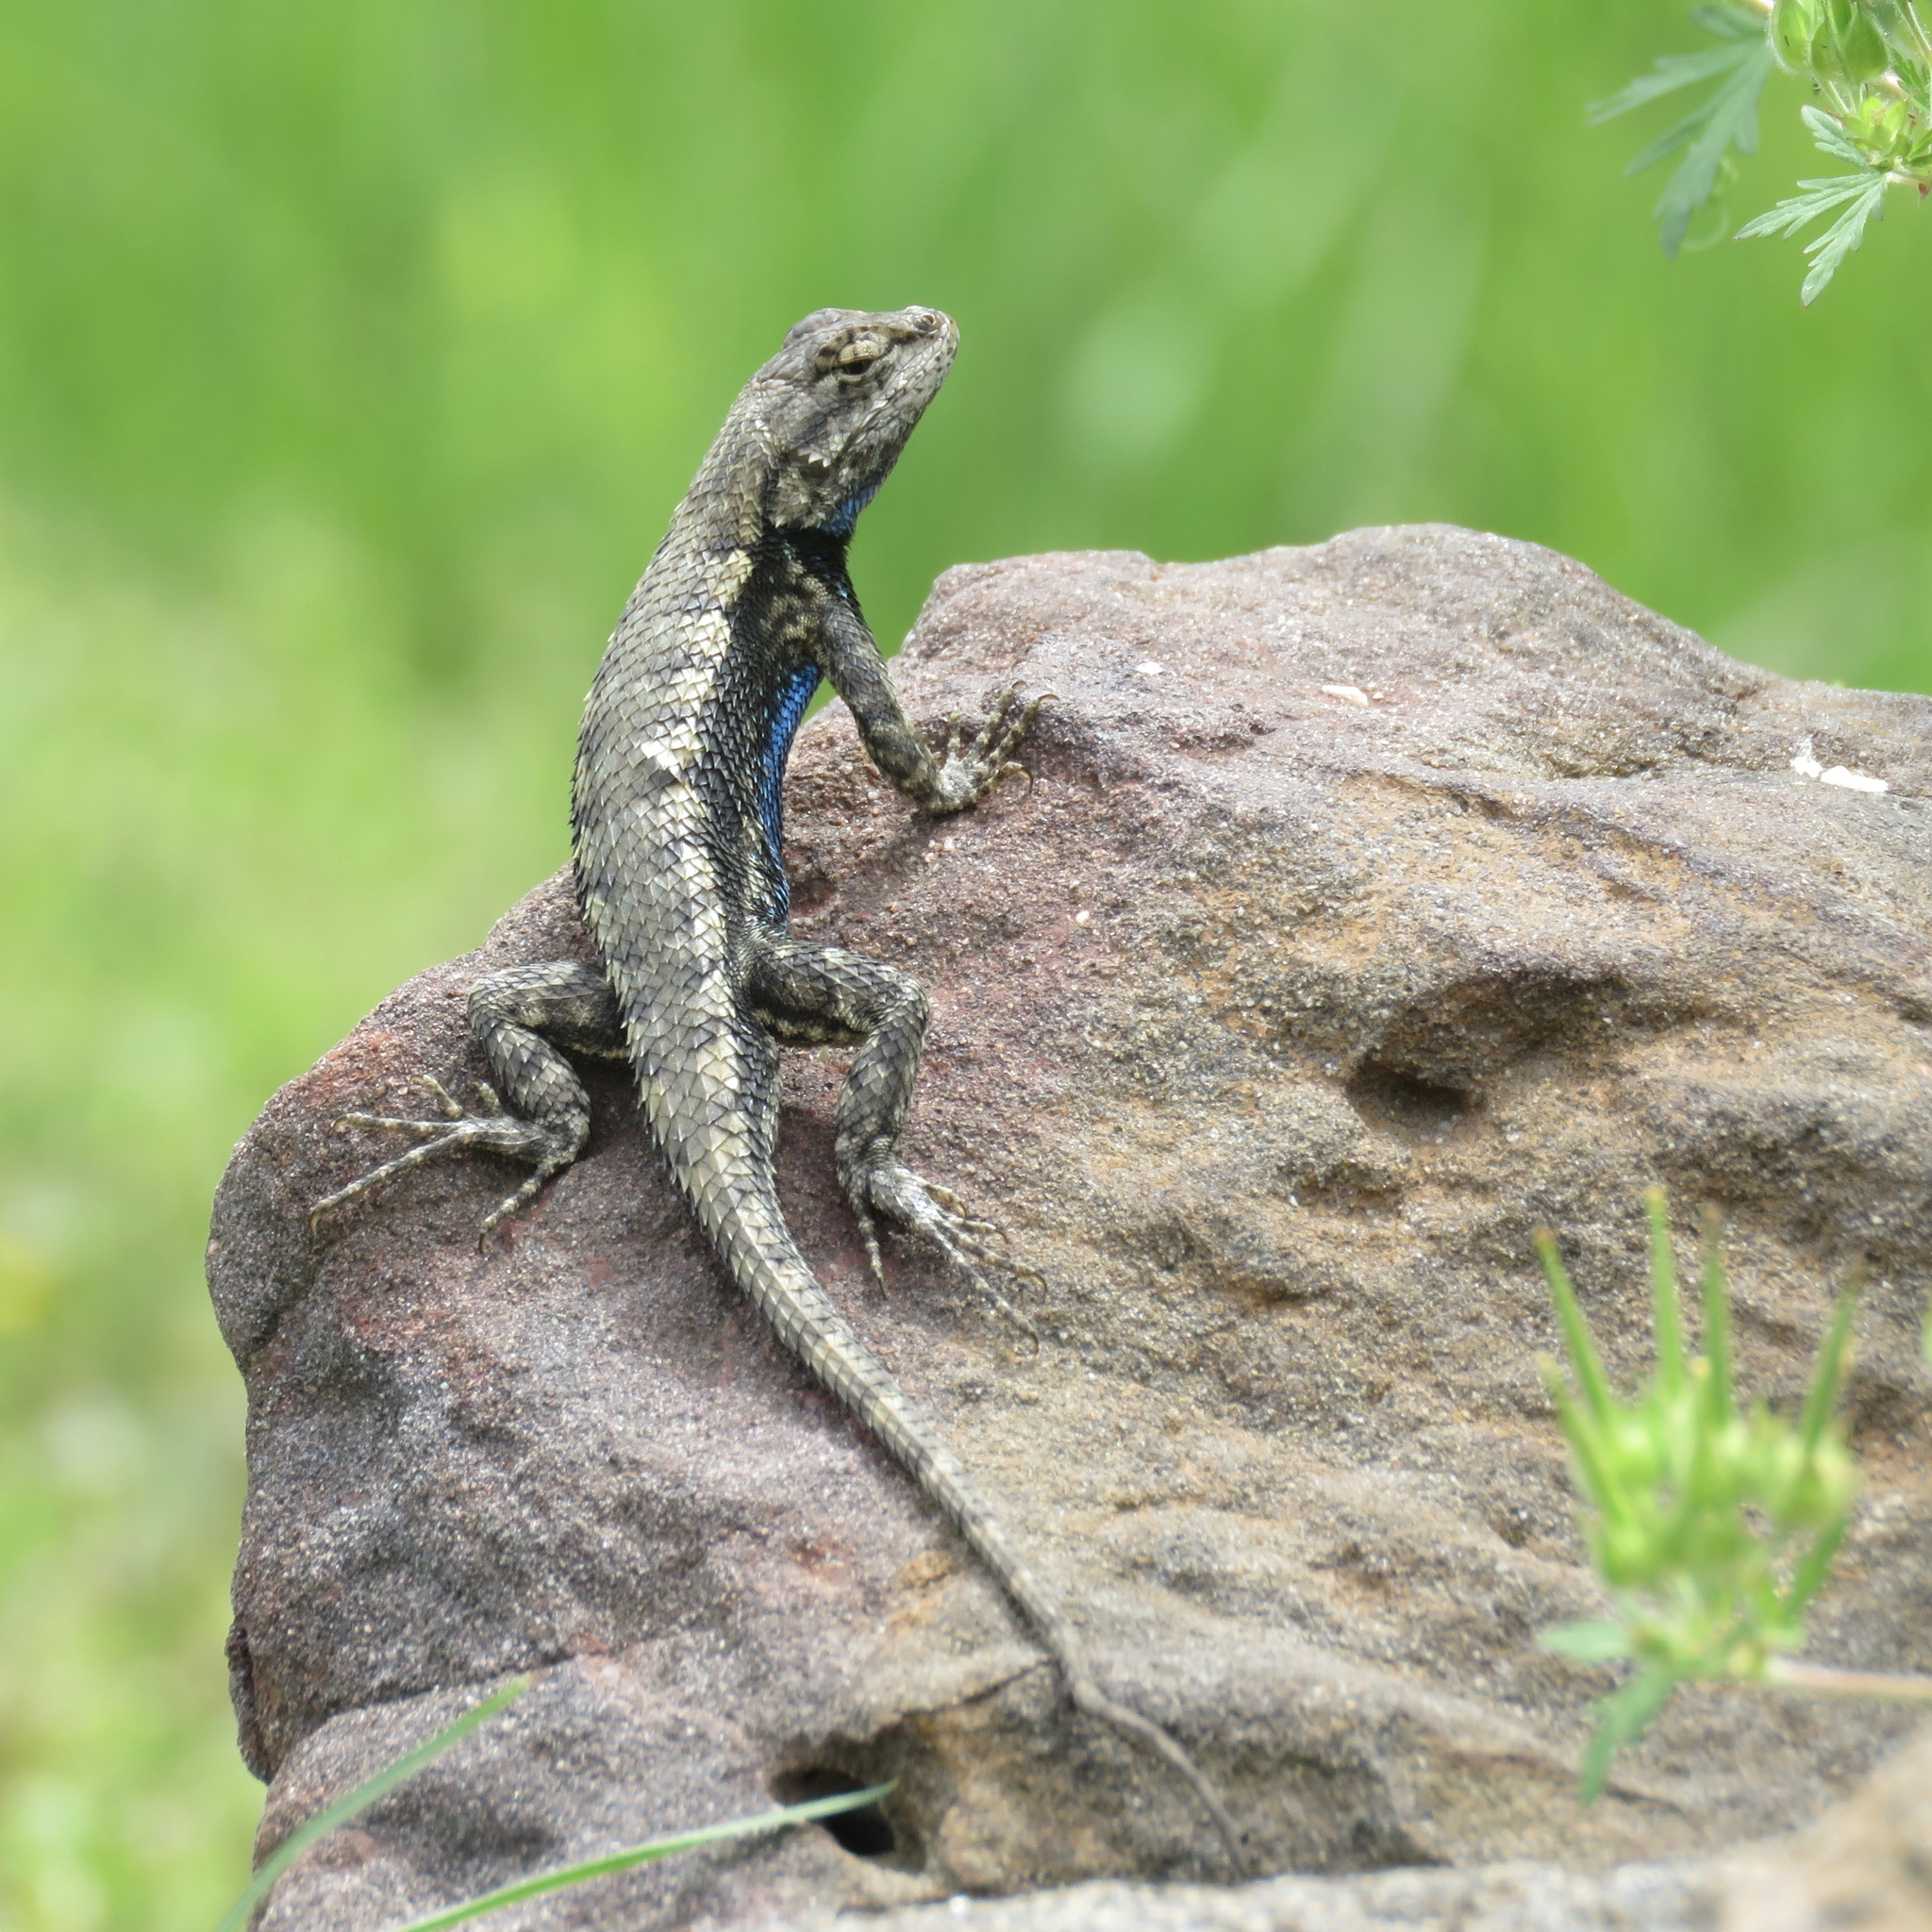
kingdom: Animalia
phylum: Chordata
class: Squamata
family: Phrynosomatidae
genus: Sceloporus
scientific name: Sceloporus consobrinus
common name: Southern prairie lizard
